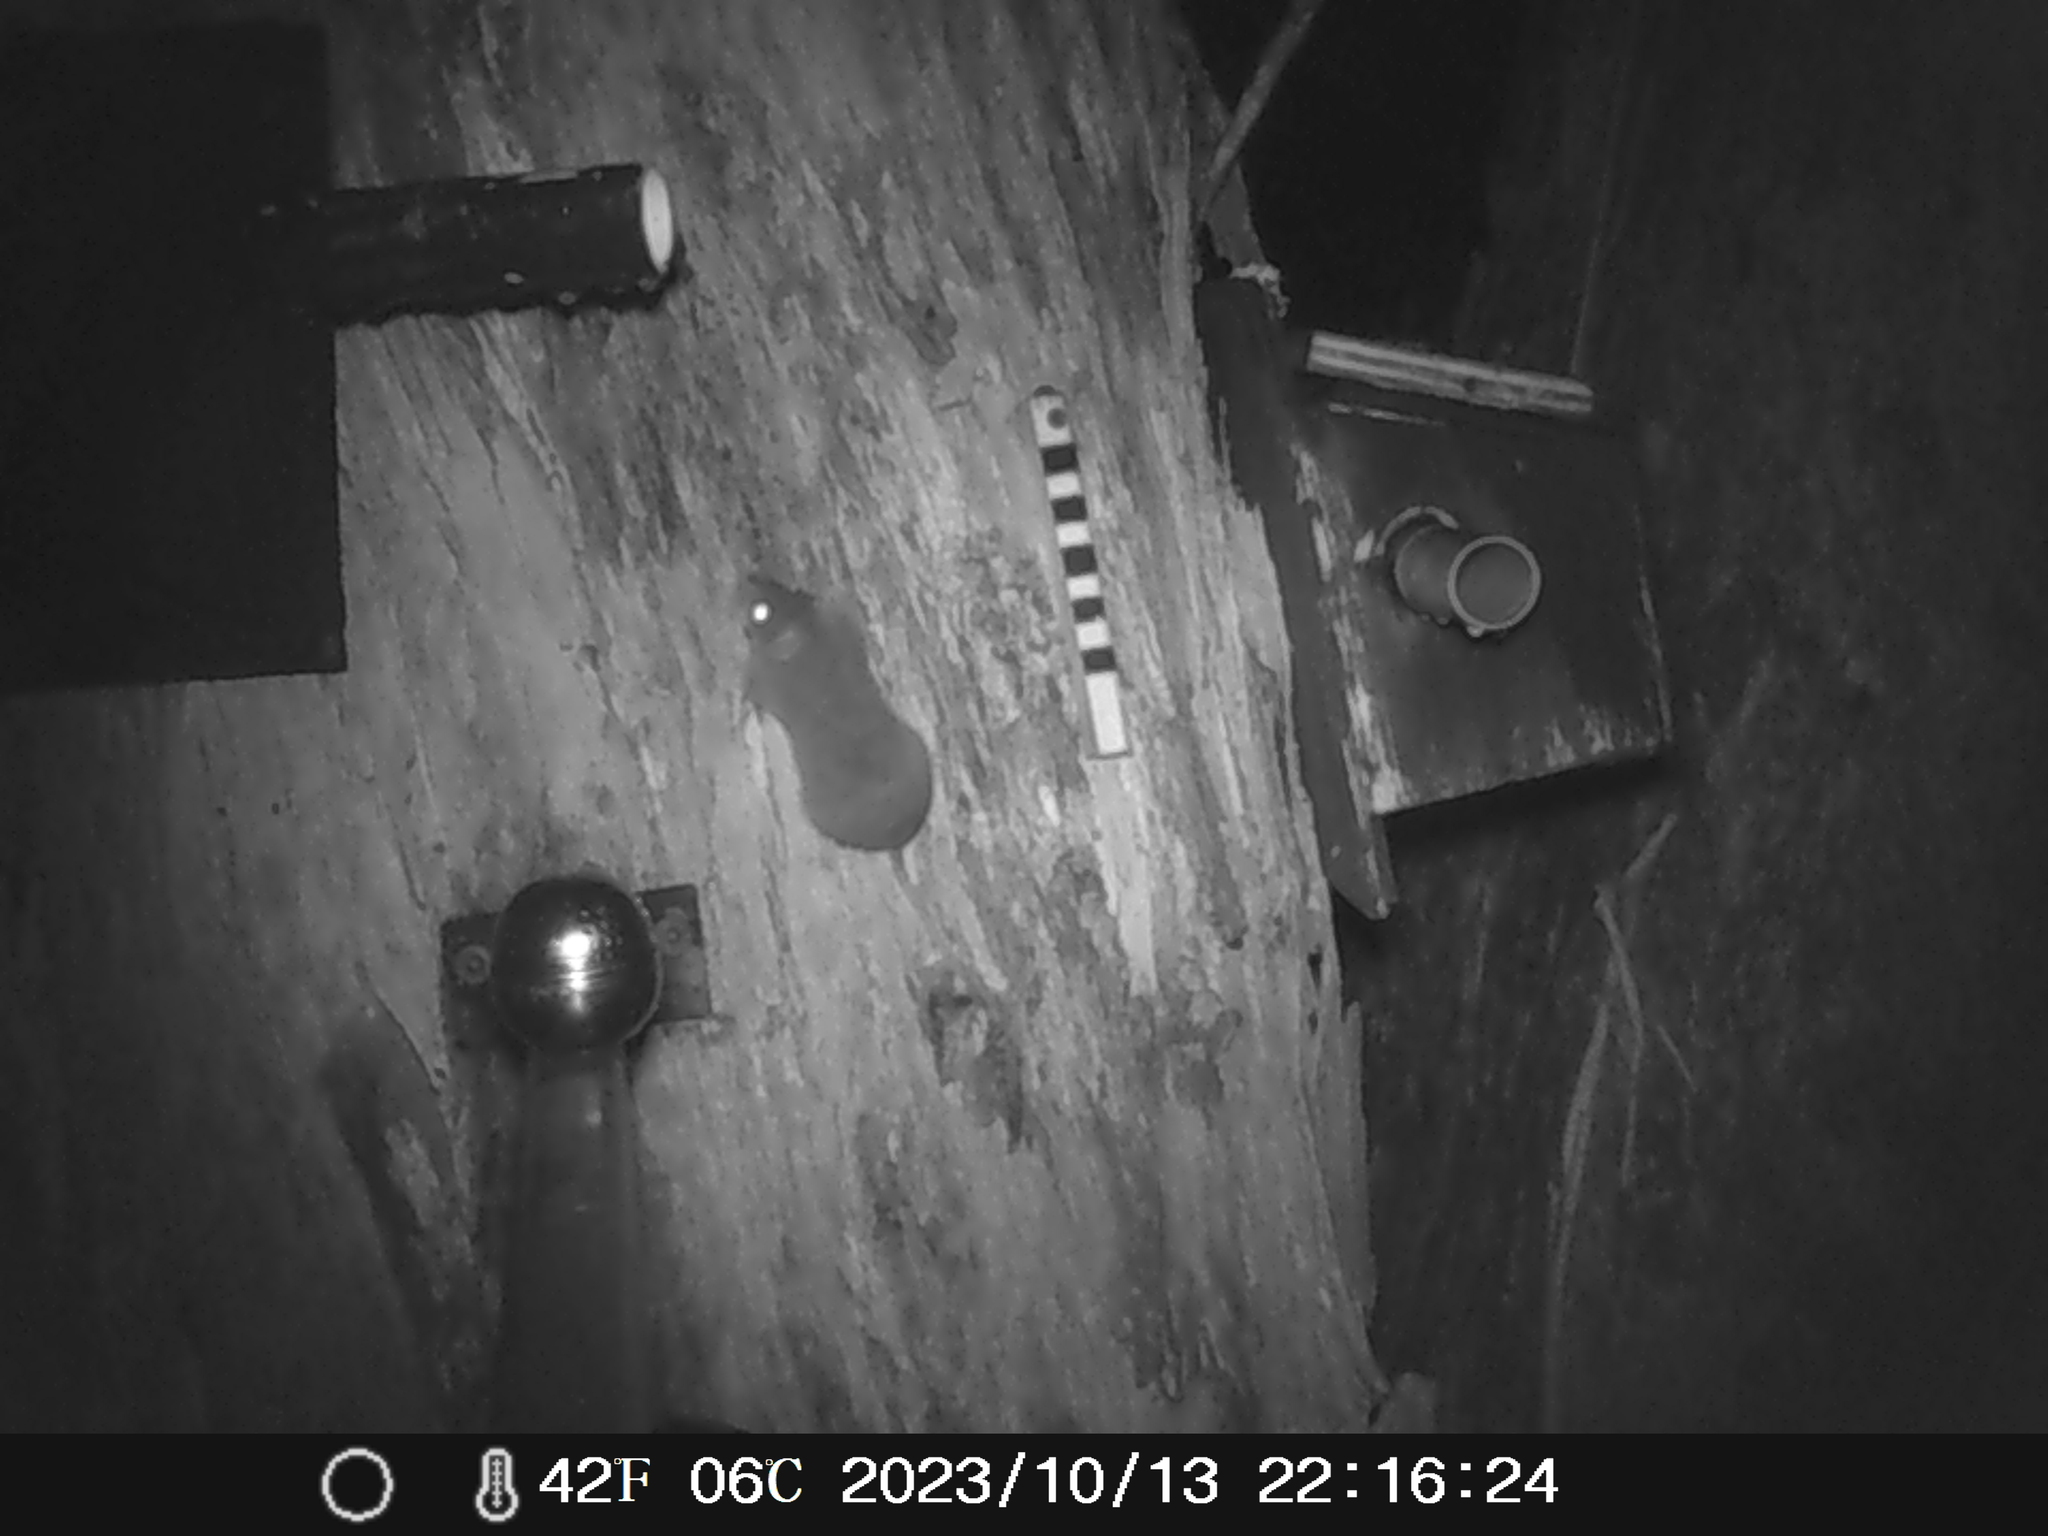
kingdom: Animalia
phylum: Chordata
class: Mammalia
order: Dasyuromorphia
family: Dasyuridae
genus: Antechinus
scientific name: Antechinus agilis
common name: Agile antechinus
